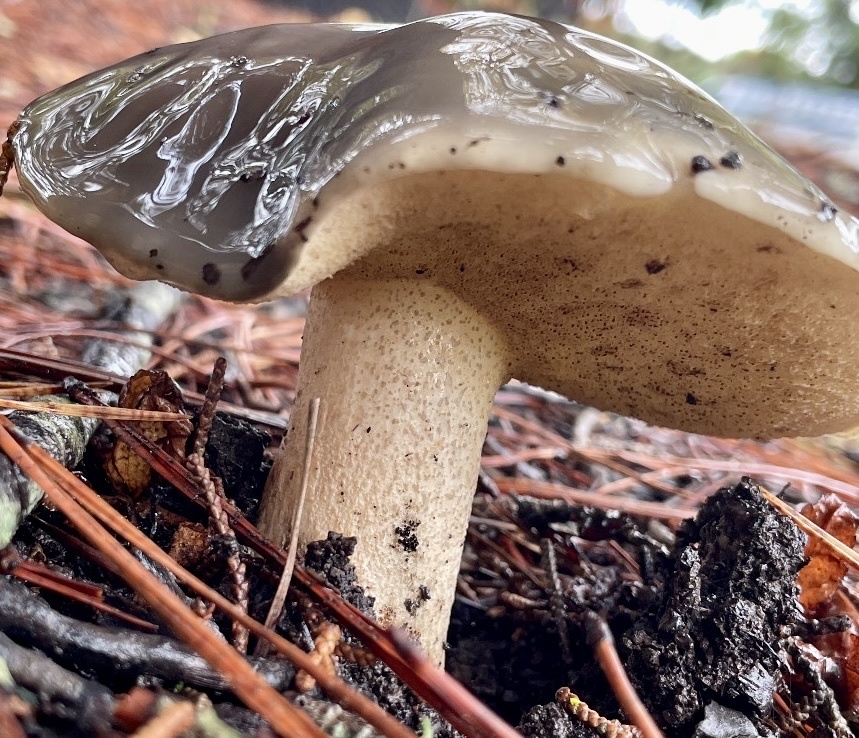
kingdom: Fungi
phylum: Basidiomycota
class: Agaricomycetes
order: Boletales
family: Suillaceae
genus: Suillus
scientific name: Suillus pungens
